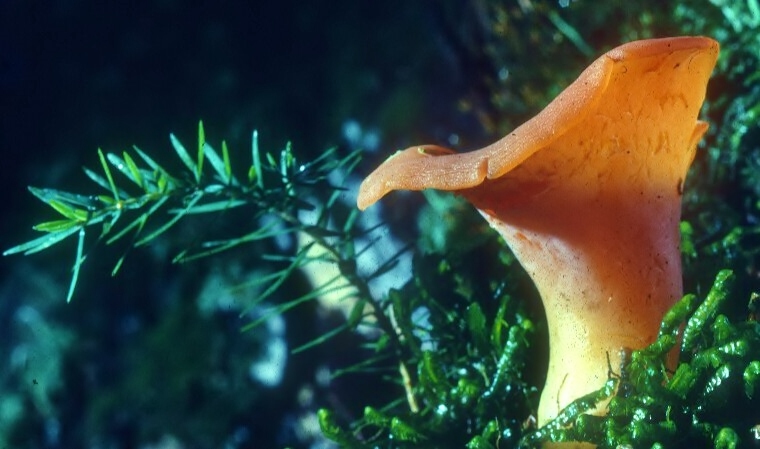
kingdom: Fungi
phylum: Basidiomycota
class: Agaricomycetes
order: Auriculariales
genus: Guepinia
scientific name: Guepinia helvelloides
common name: Salmon salad
